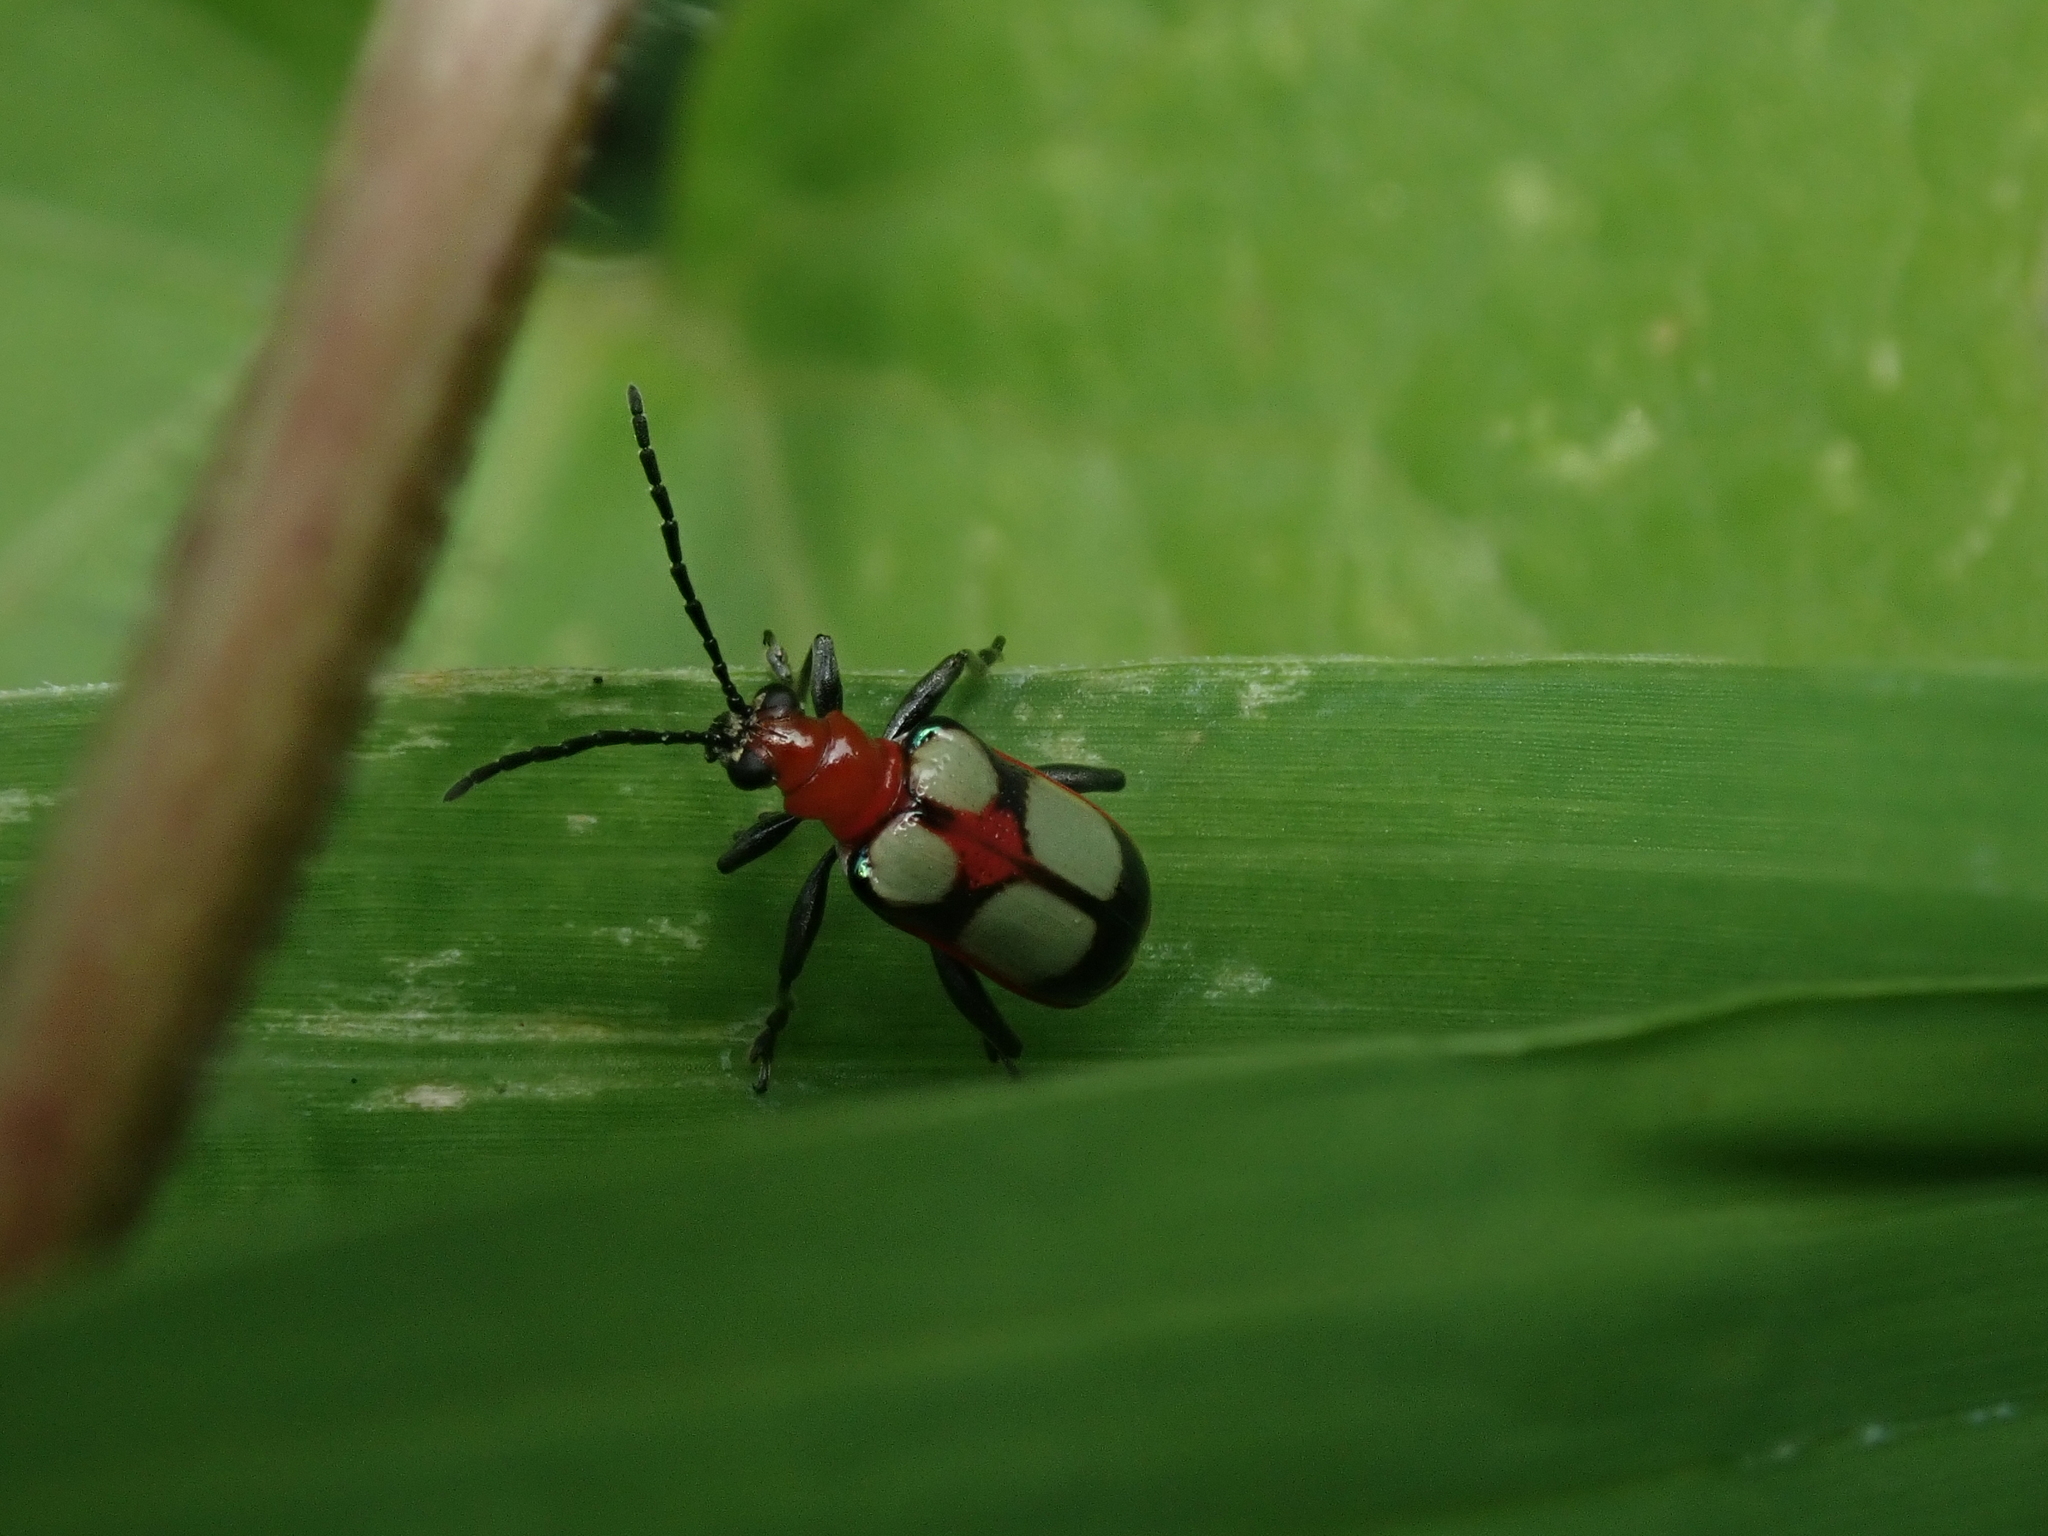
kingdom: Animalia
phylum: Arthropoda
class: Insecta
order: Coleoptera
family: Chrysomelidae
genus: Neolema
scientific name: Neolema
